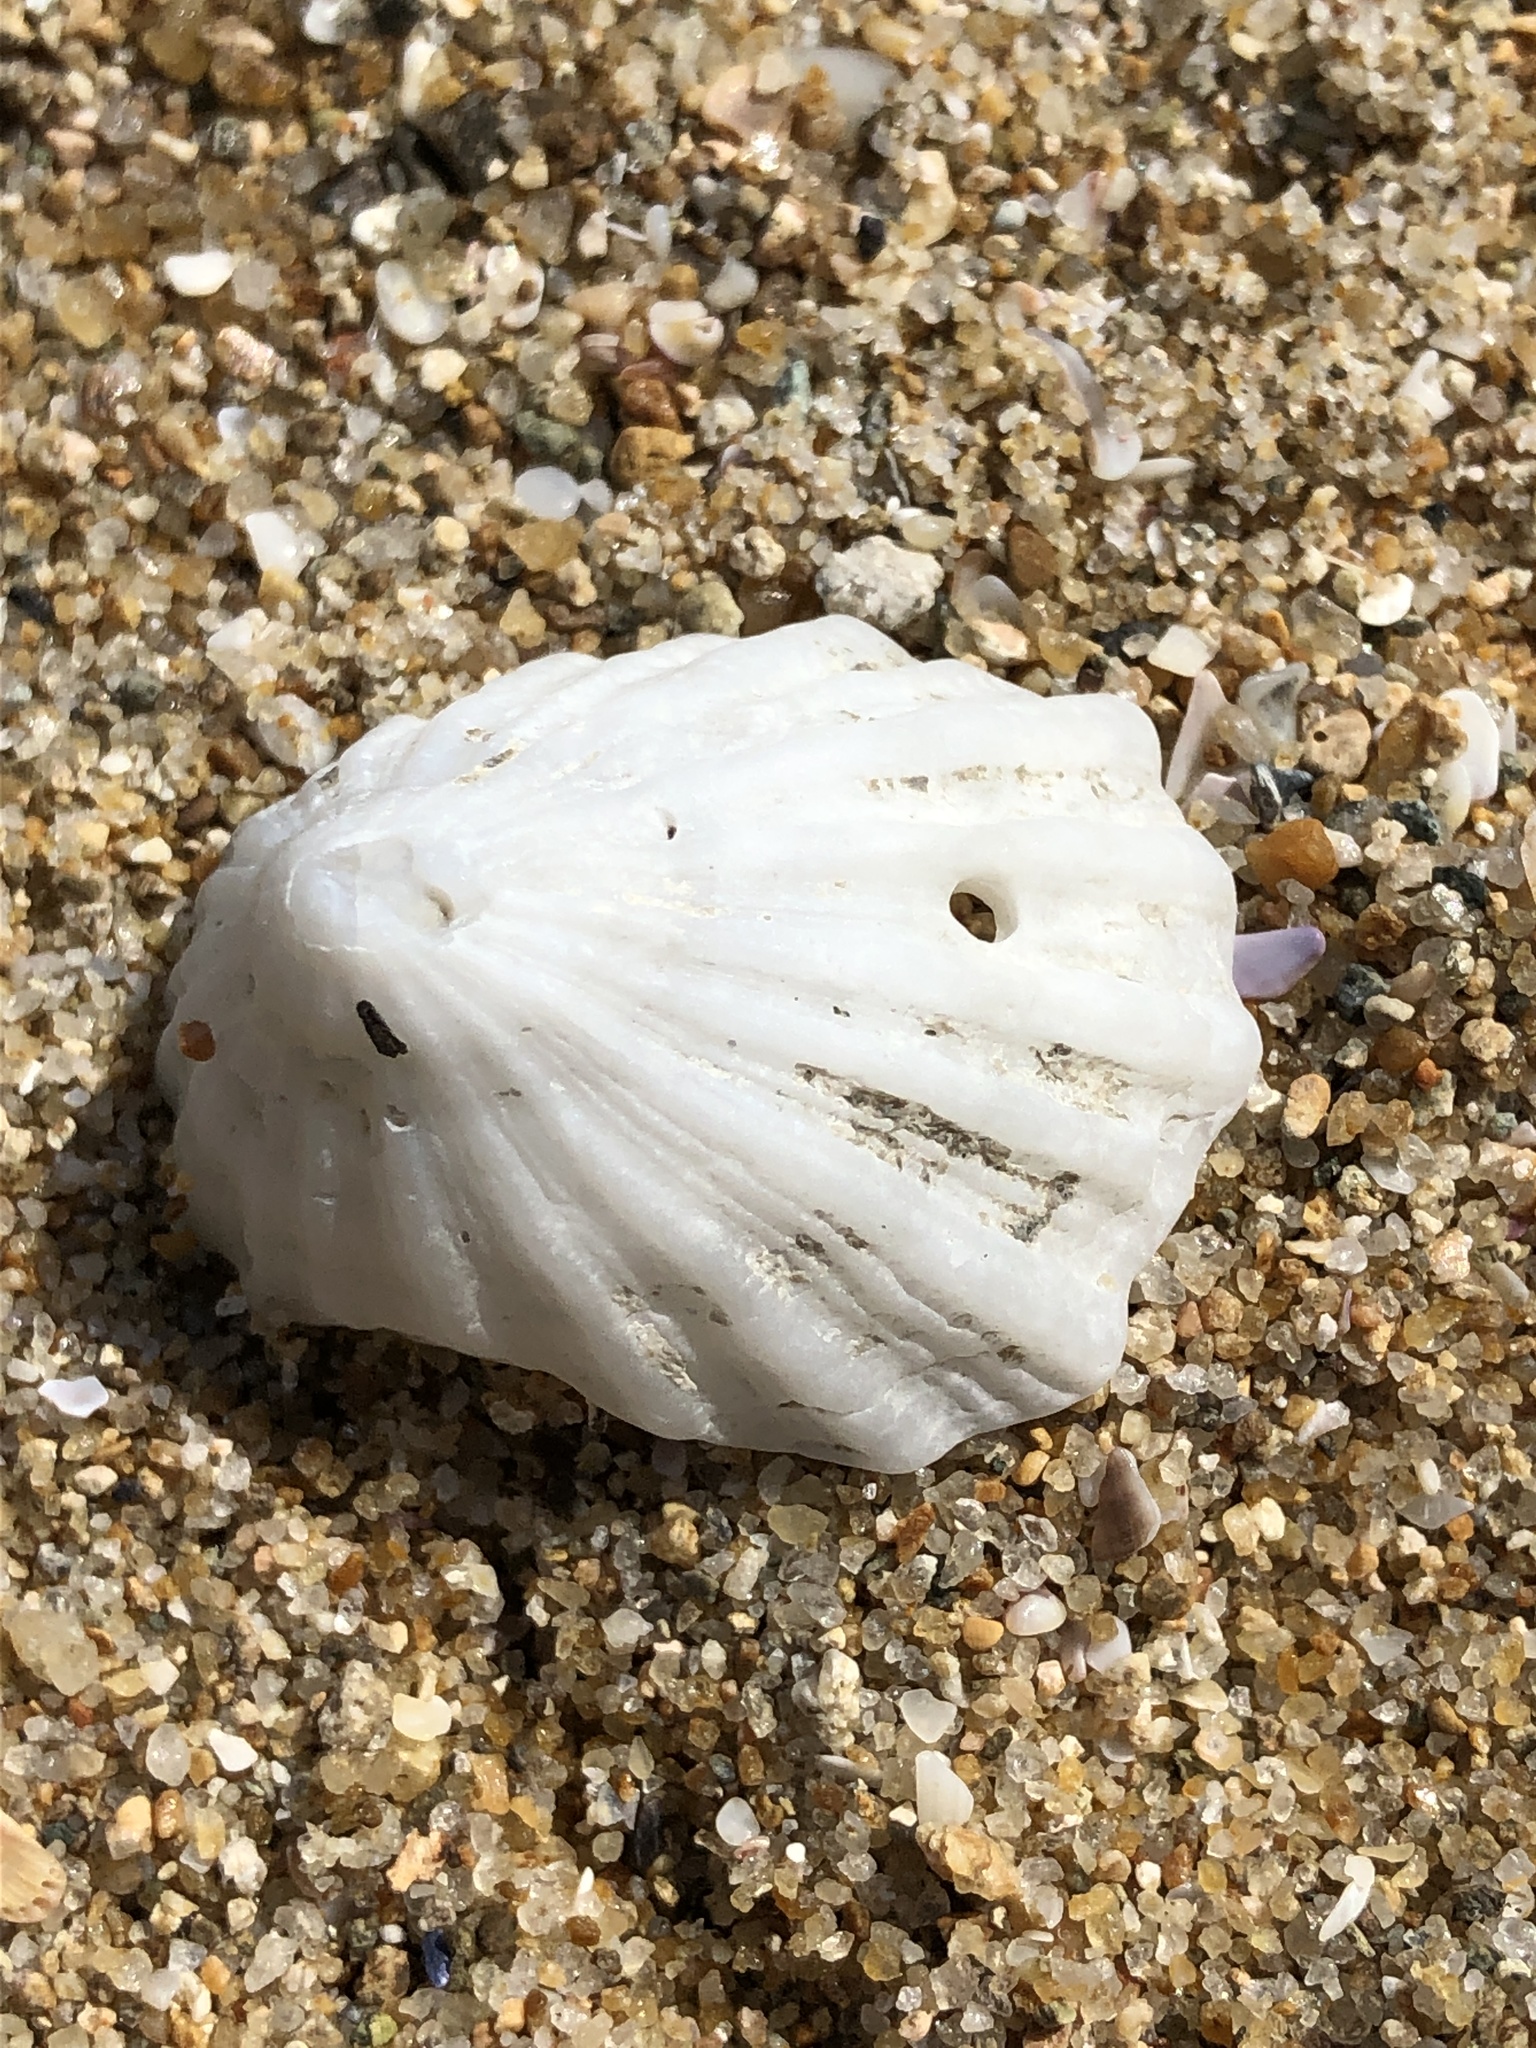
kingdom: Animalia
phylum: Mollusca
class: Gastropoda
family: Lottiidae
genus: Niveotectura
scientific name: Niveotectura pallida
